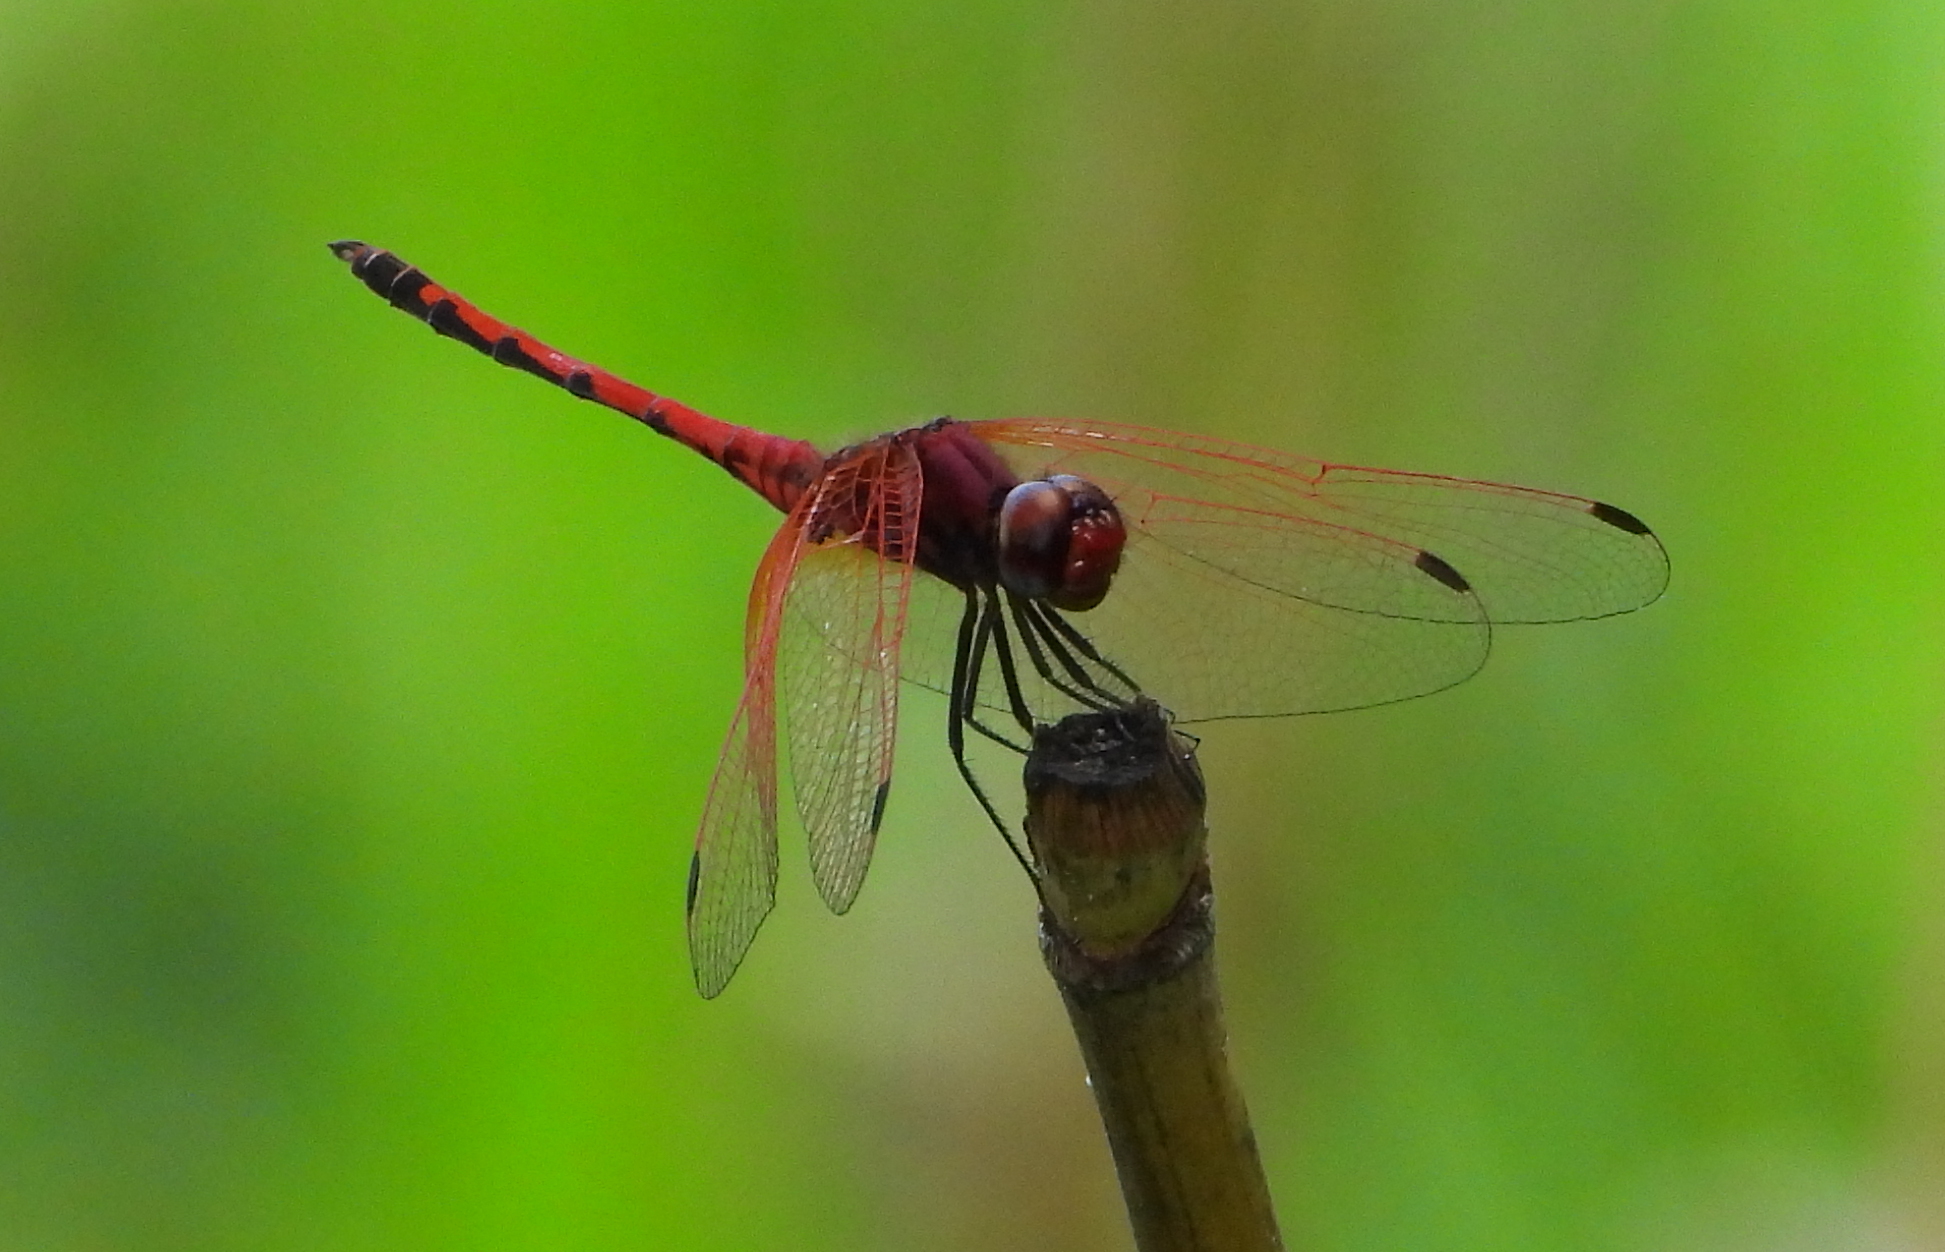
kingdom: Animalia
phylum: Arthropoda
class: Insecta
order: Odonata
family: Libellulidae
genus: Trithemis
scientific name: Trithemis arteriosa
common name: Red-veined dropwing
